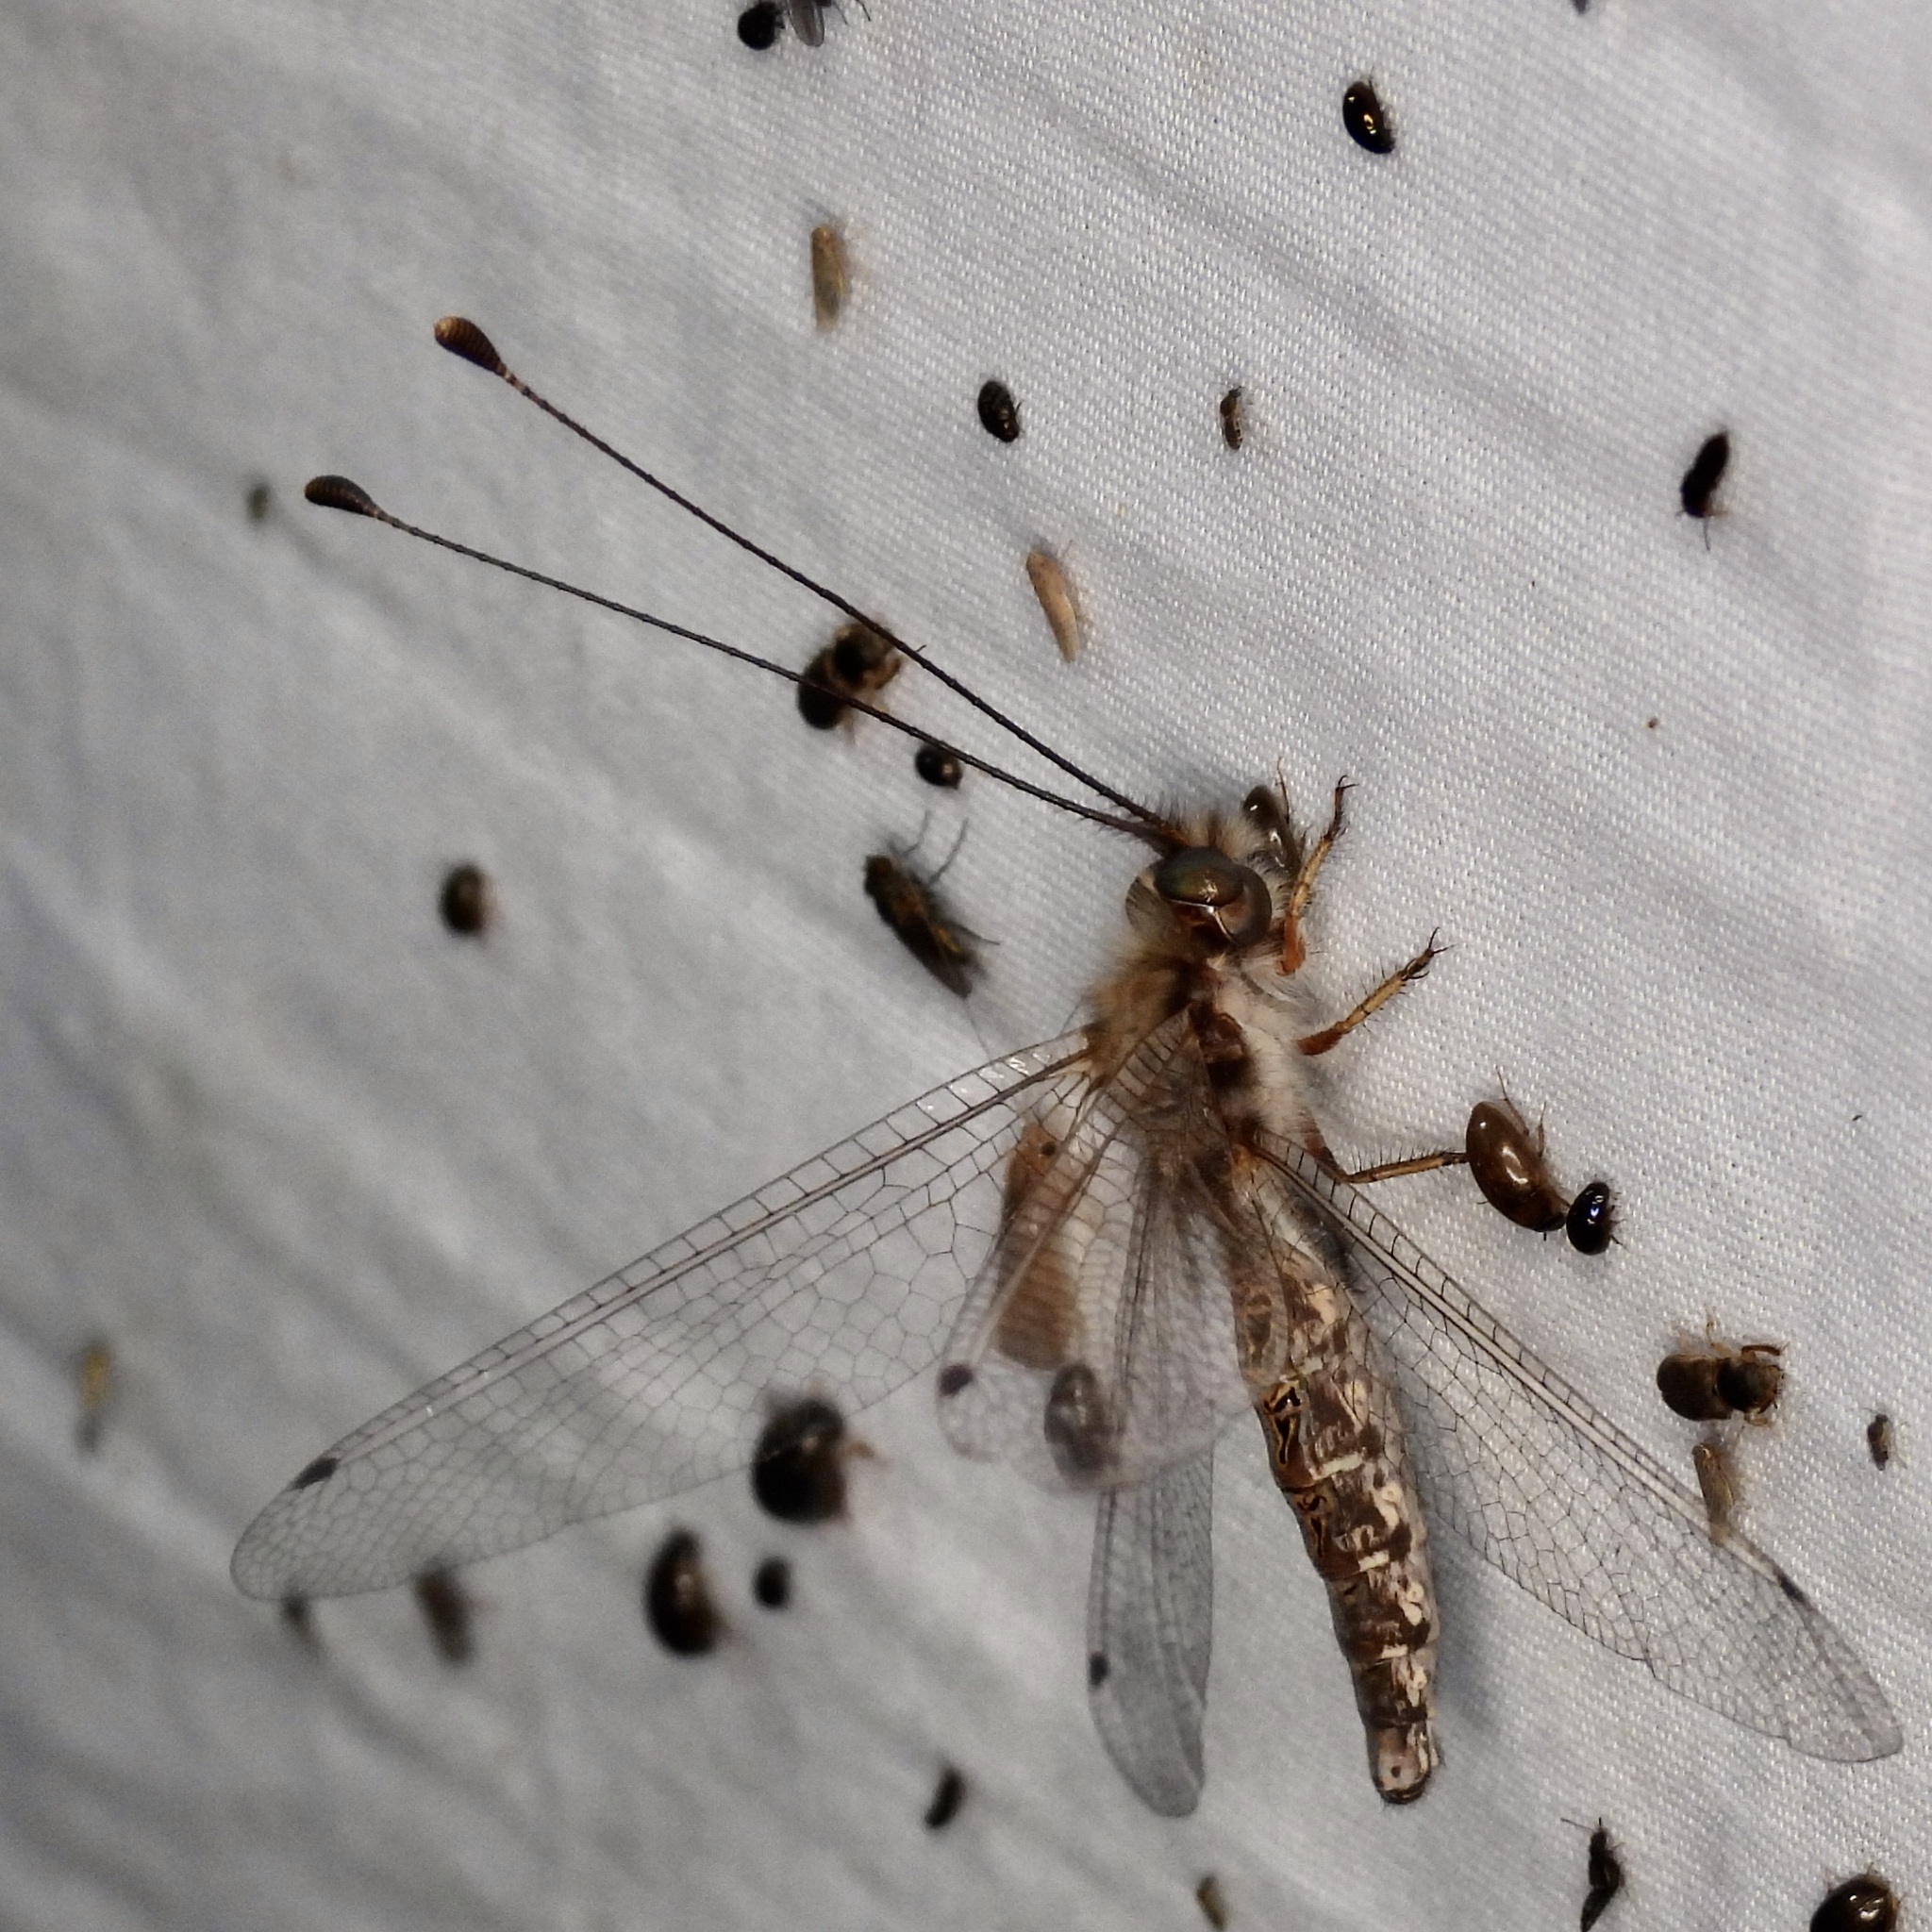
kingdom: Animalia
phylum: Arthropoda
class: Insecta
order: Neuroptera
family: Ascalaphidae
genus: Ululodes
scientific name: Ululodes macleayanus
